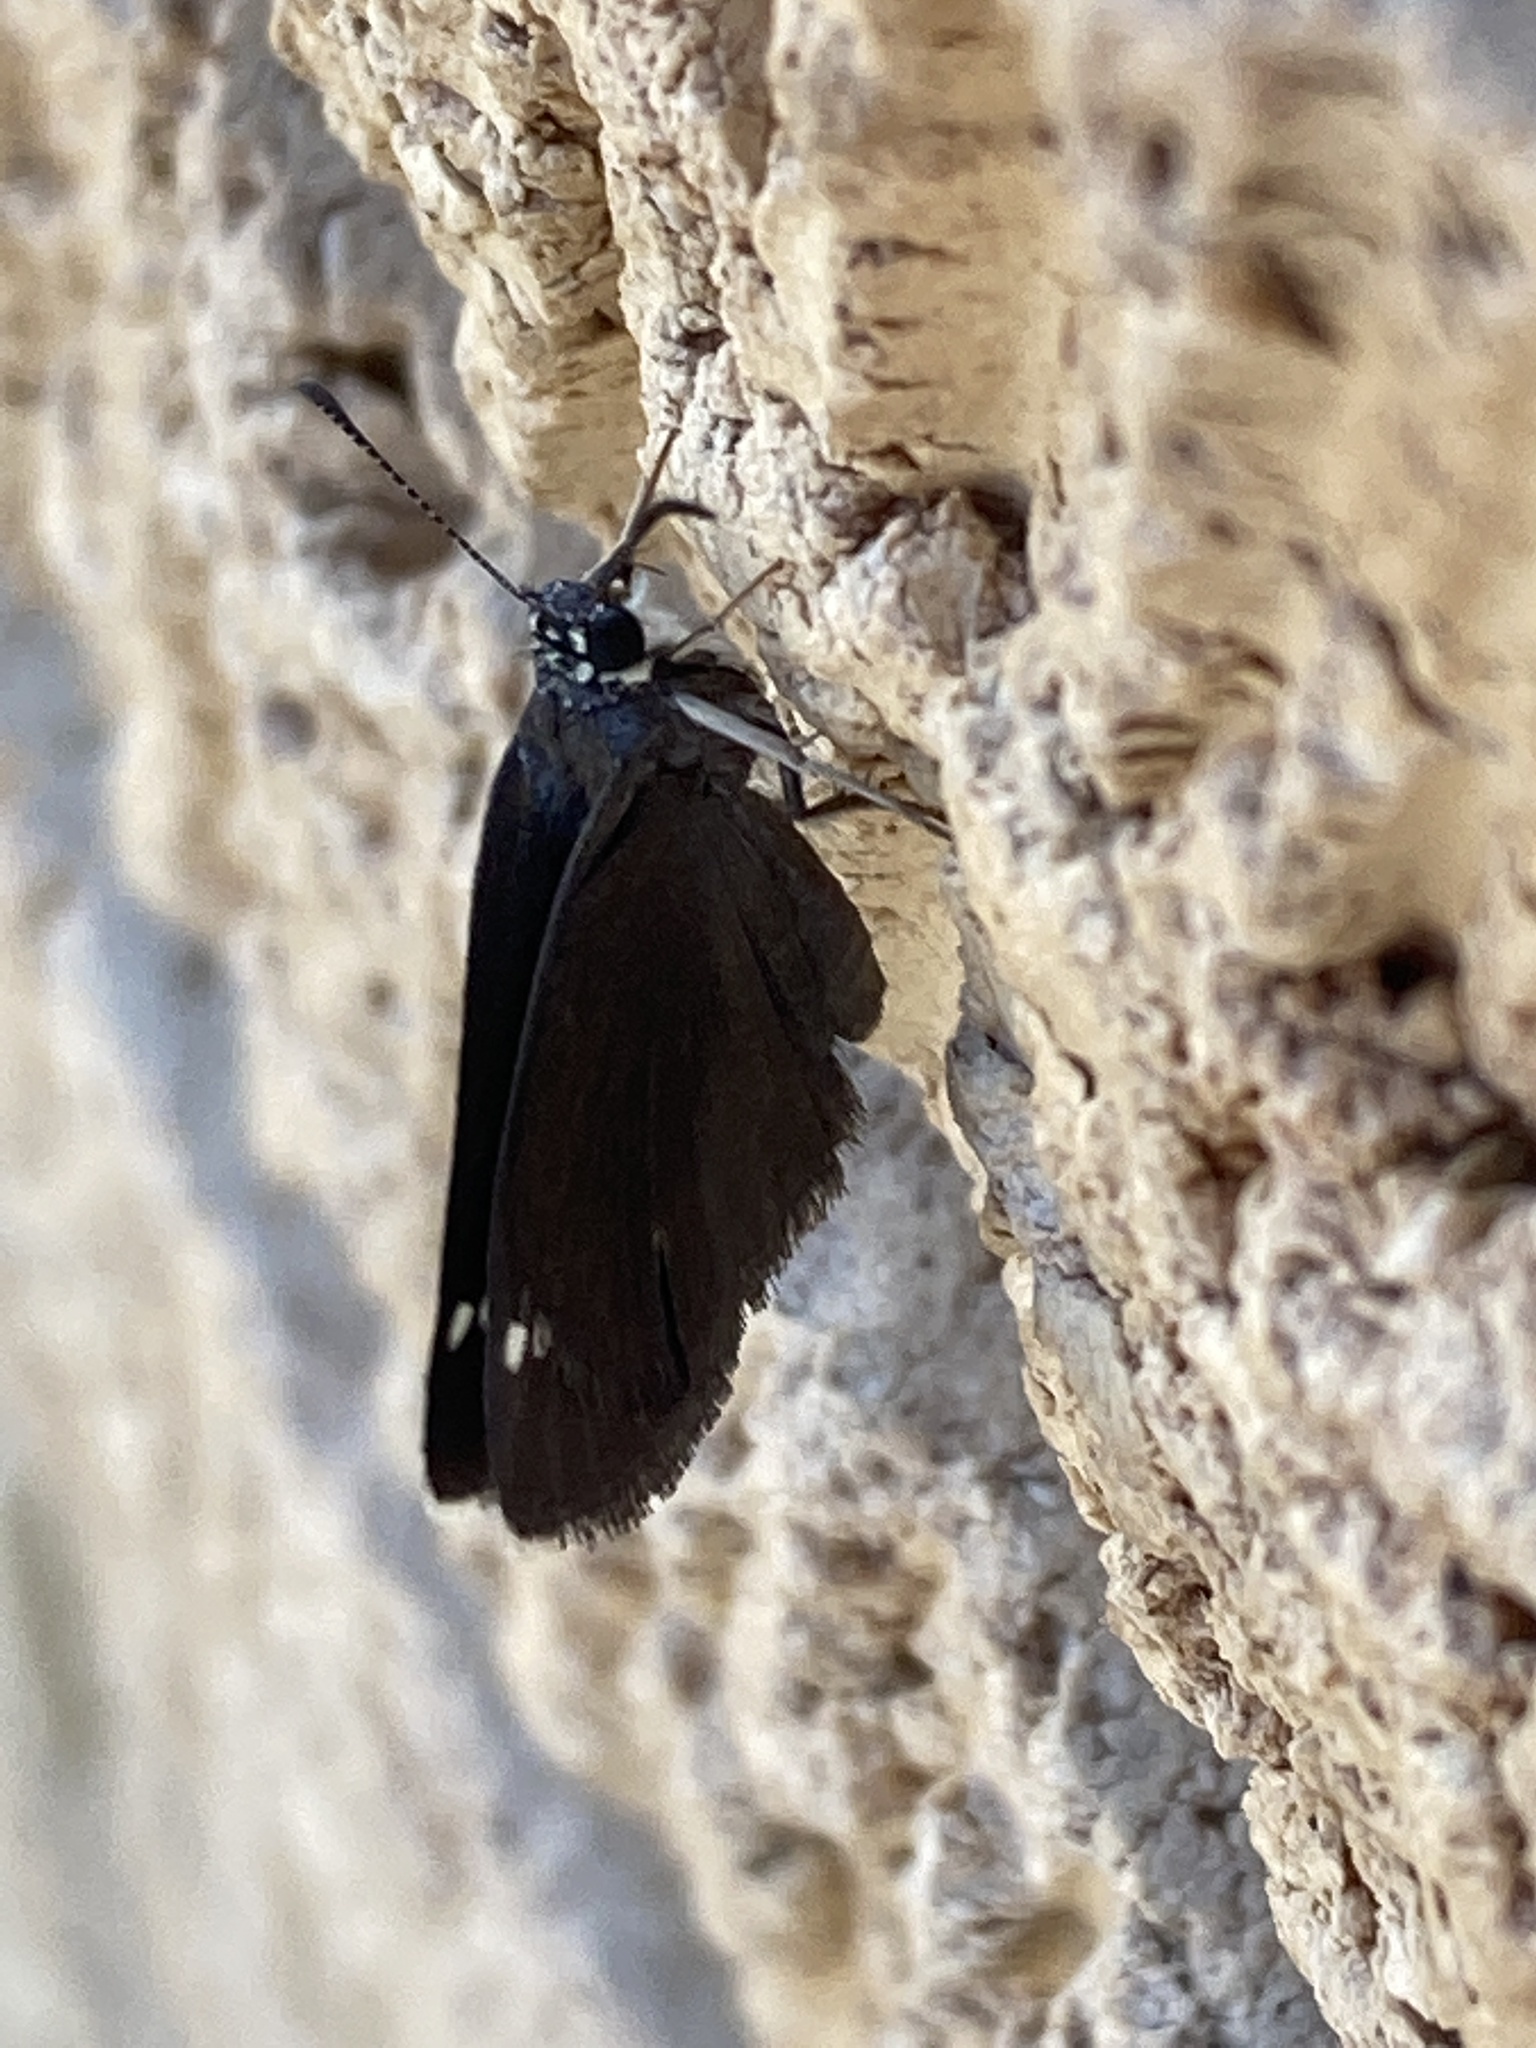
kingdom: Animalia
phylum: Arthropoda
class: Insecta
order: Lepidoptera
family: Hesperiidae
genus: Pholisora
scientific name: Pholisora catullus
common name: Common sootywing
